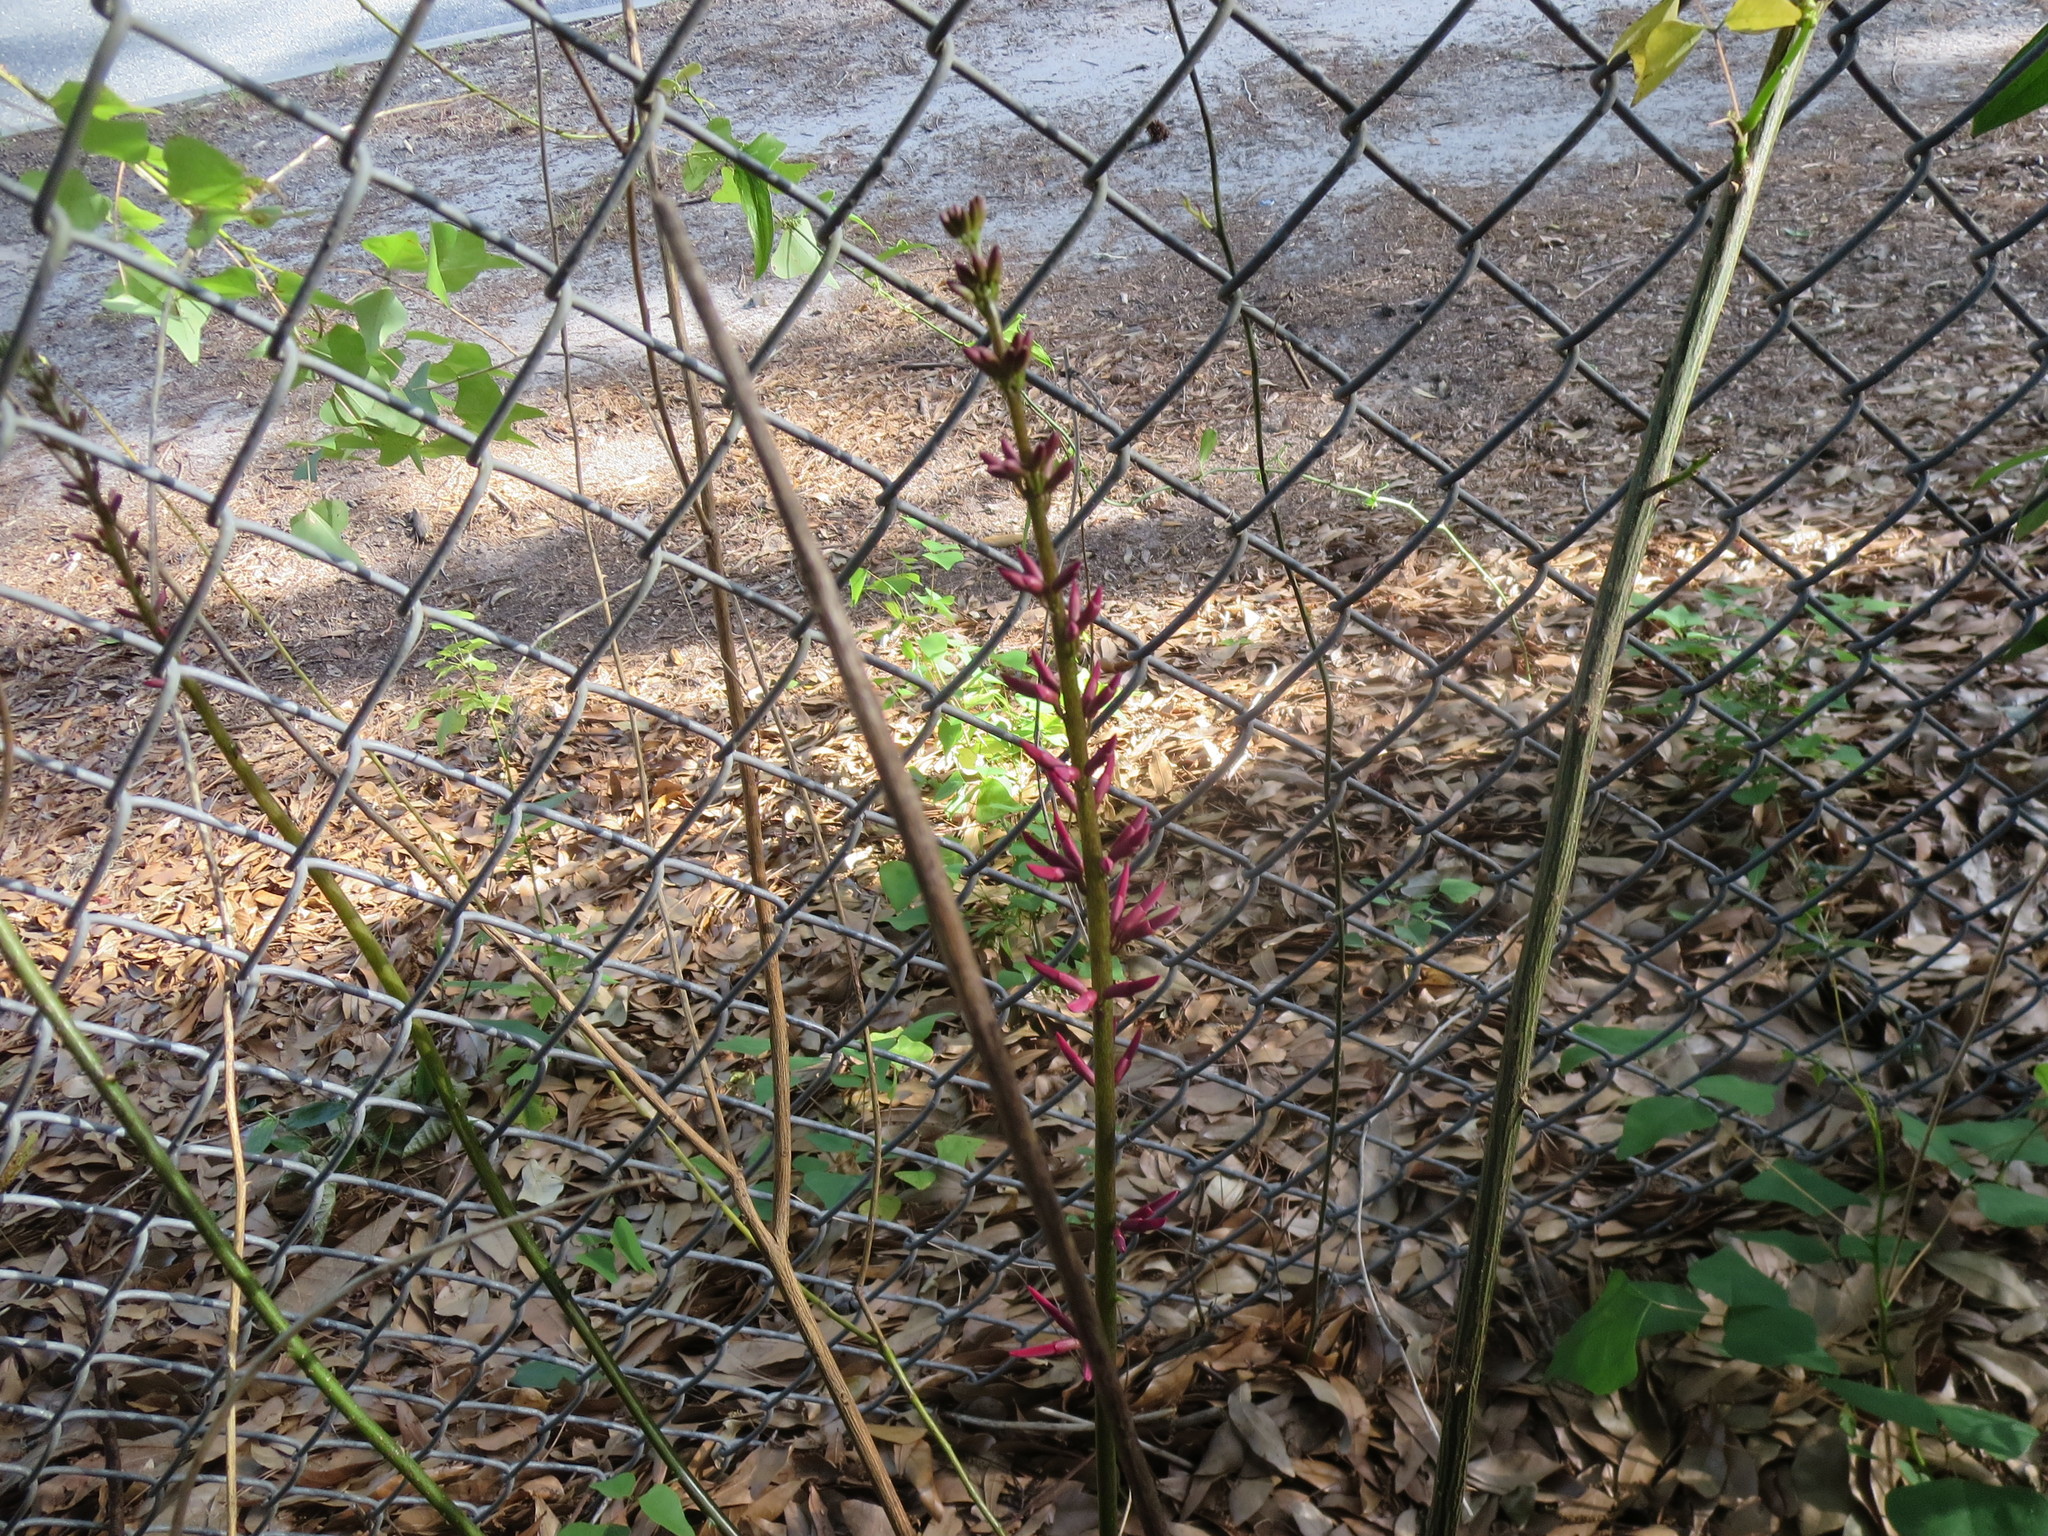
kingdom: Plantae
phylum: Tracheophyta
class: Magnoliopsida
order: Fabales
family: Fabaceae
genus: Erythrina
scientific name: Erythrina herbacea
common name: Coral-bean
